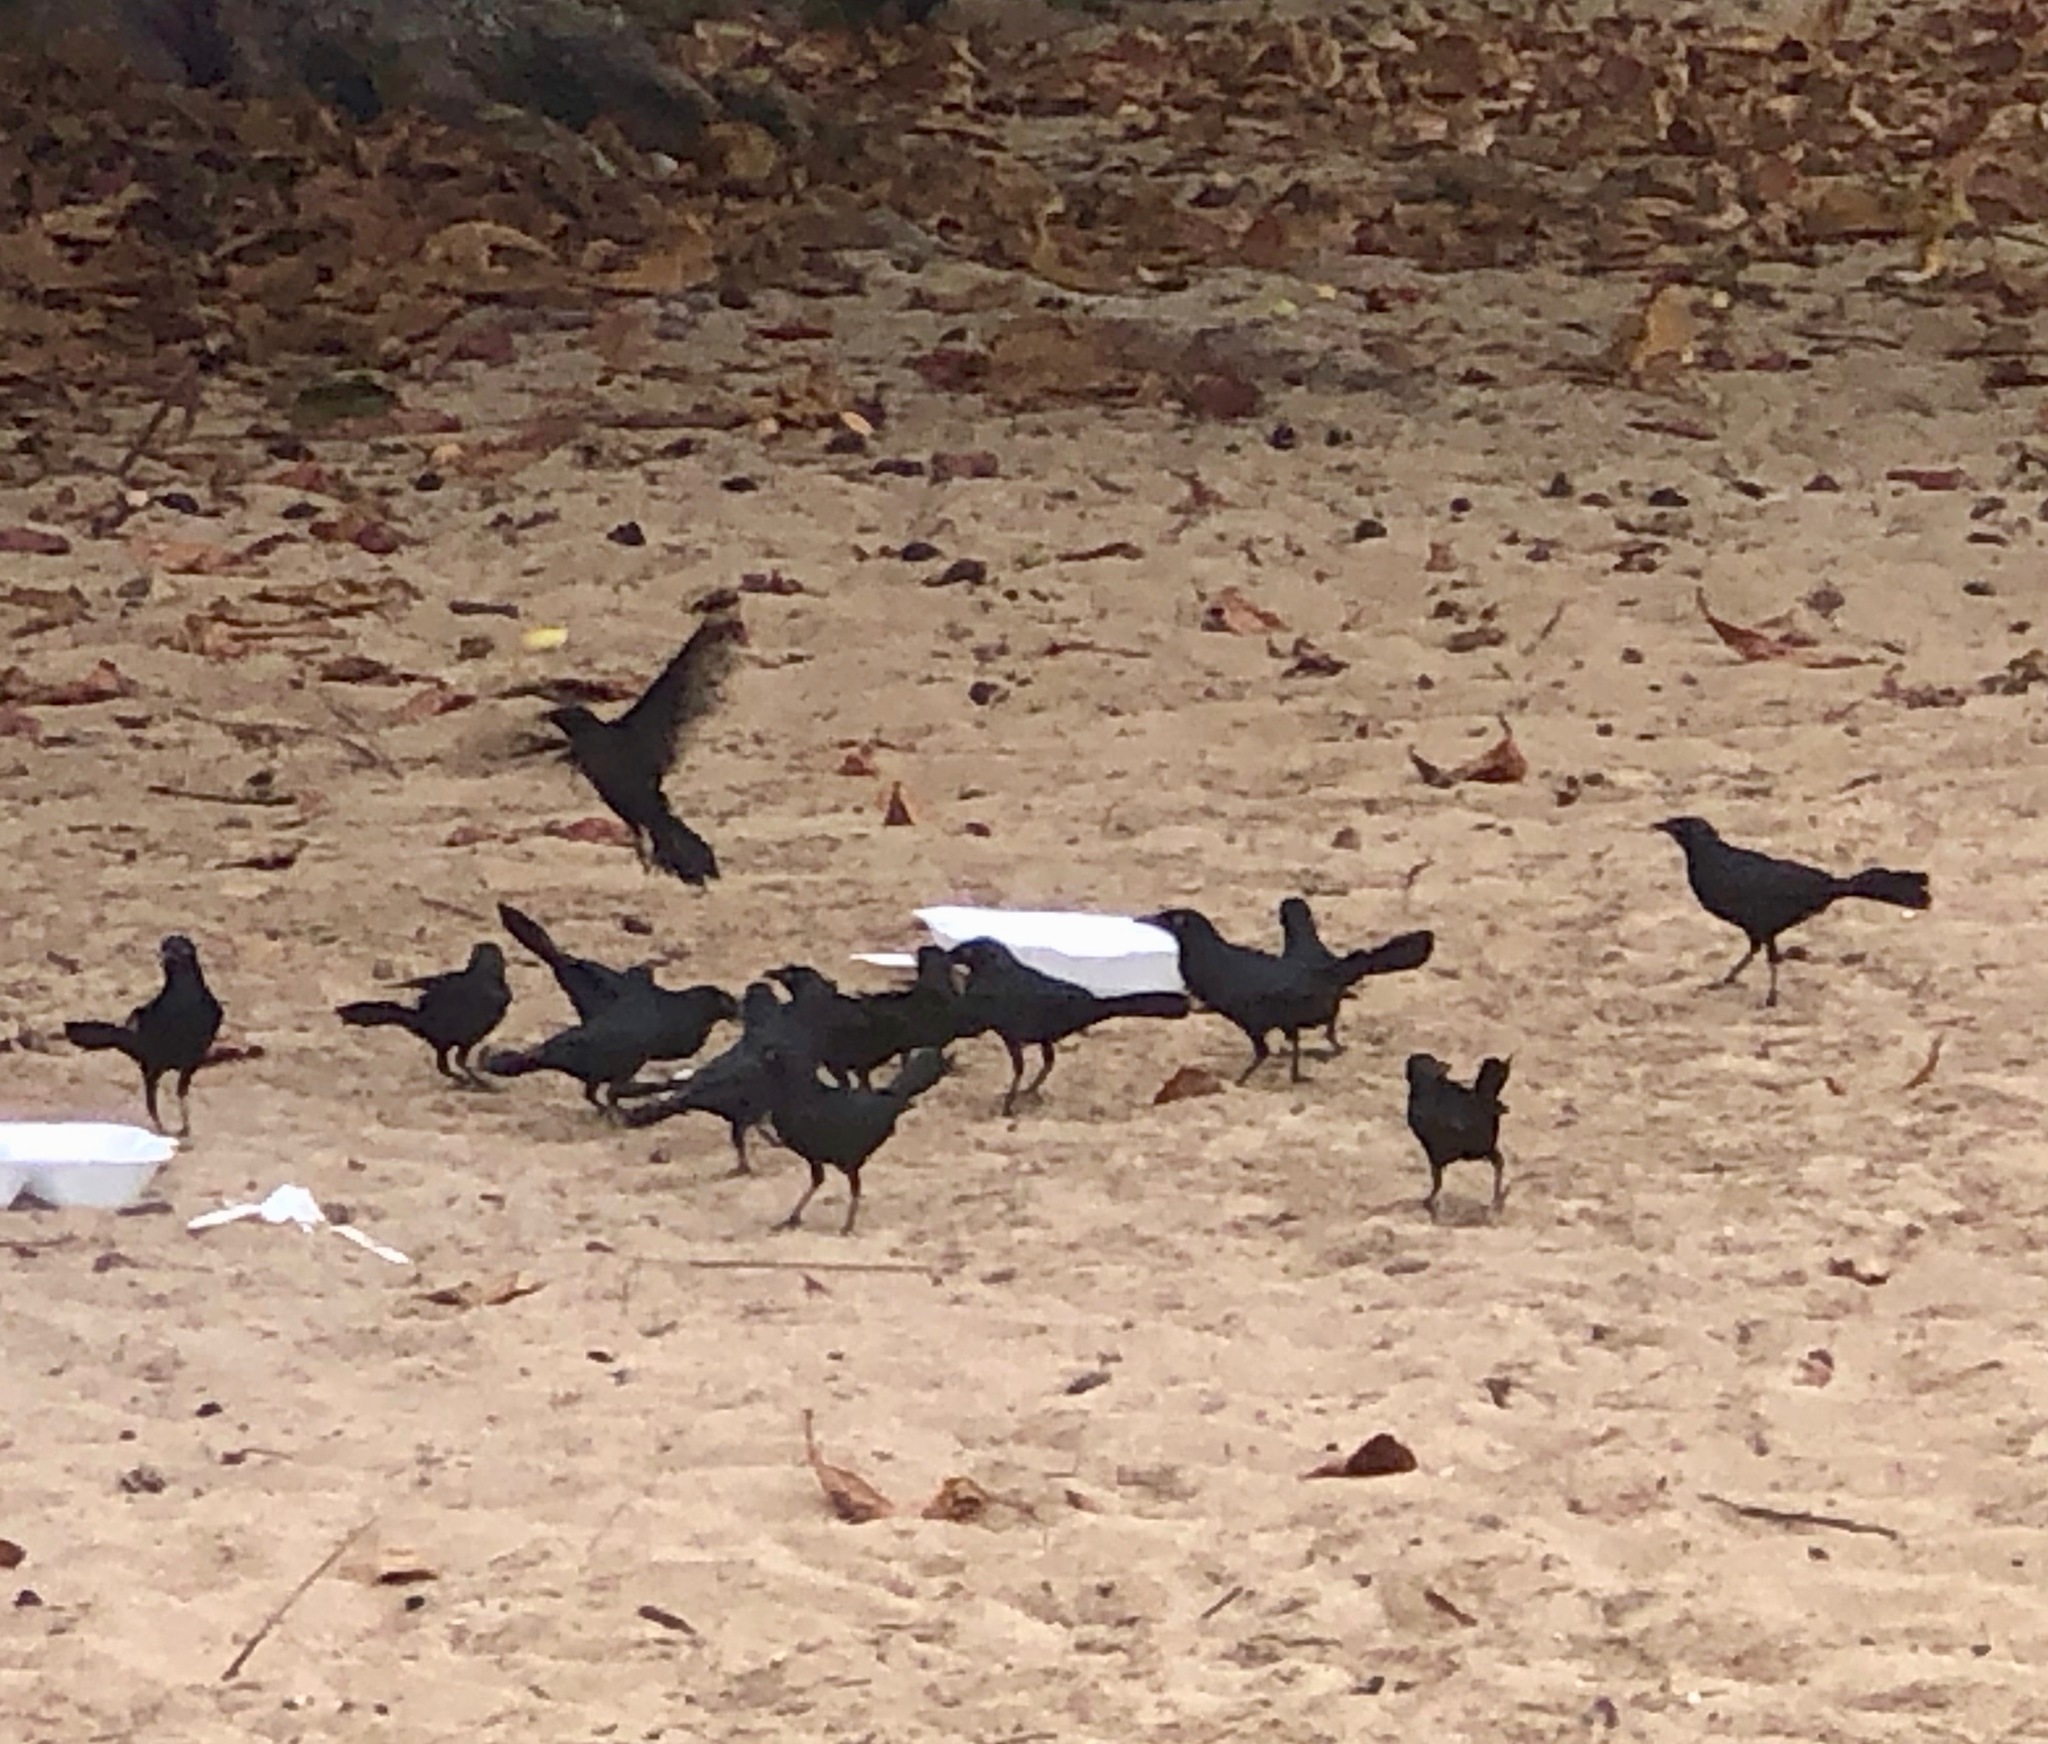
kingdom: Animalia
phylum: Chordata
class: Aves
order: Passeriformes
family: Icteridae
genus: Quiscalus
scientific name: Quiscalus niger
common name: Greater antillean grackle
